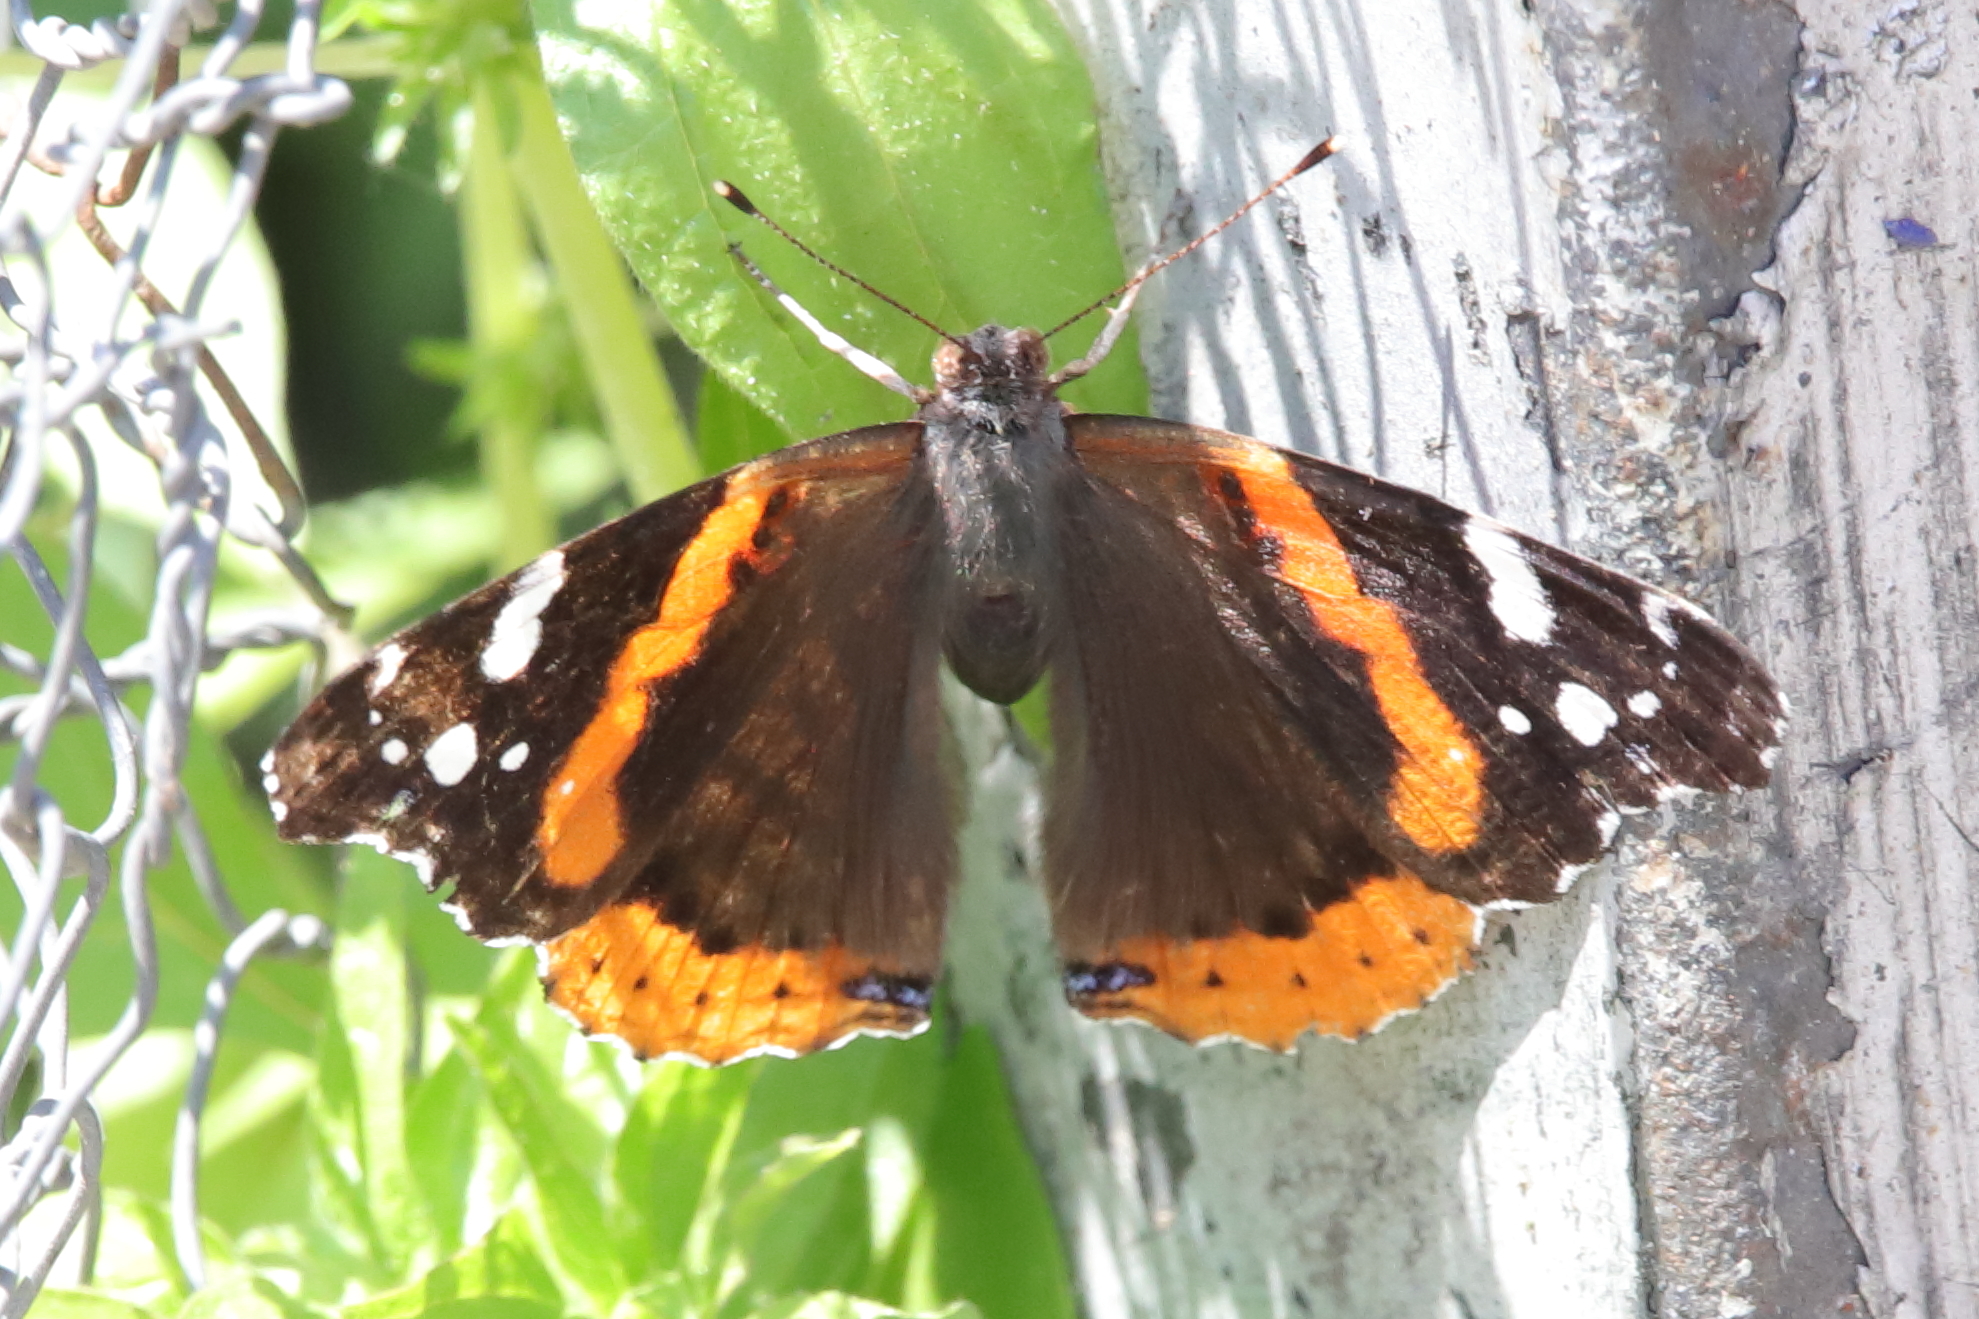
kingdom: Animalia
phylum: Arthropoda
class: Insecta
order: Lepidoptera
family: Nymphalidae
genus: Vanessa
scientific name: Vanessa atalanta
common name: Red admiral
